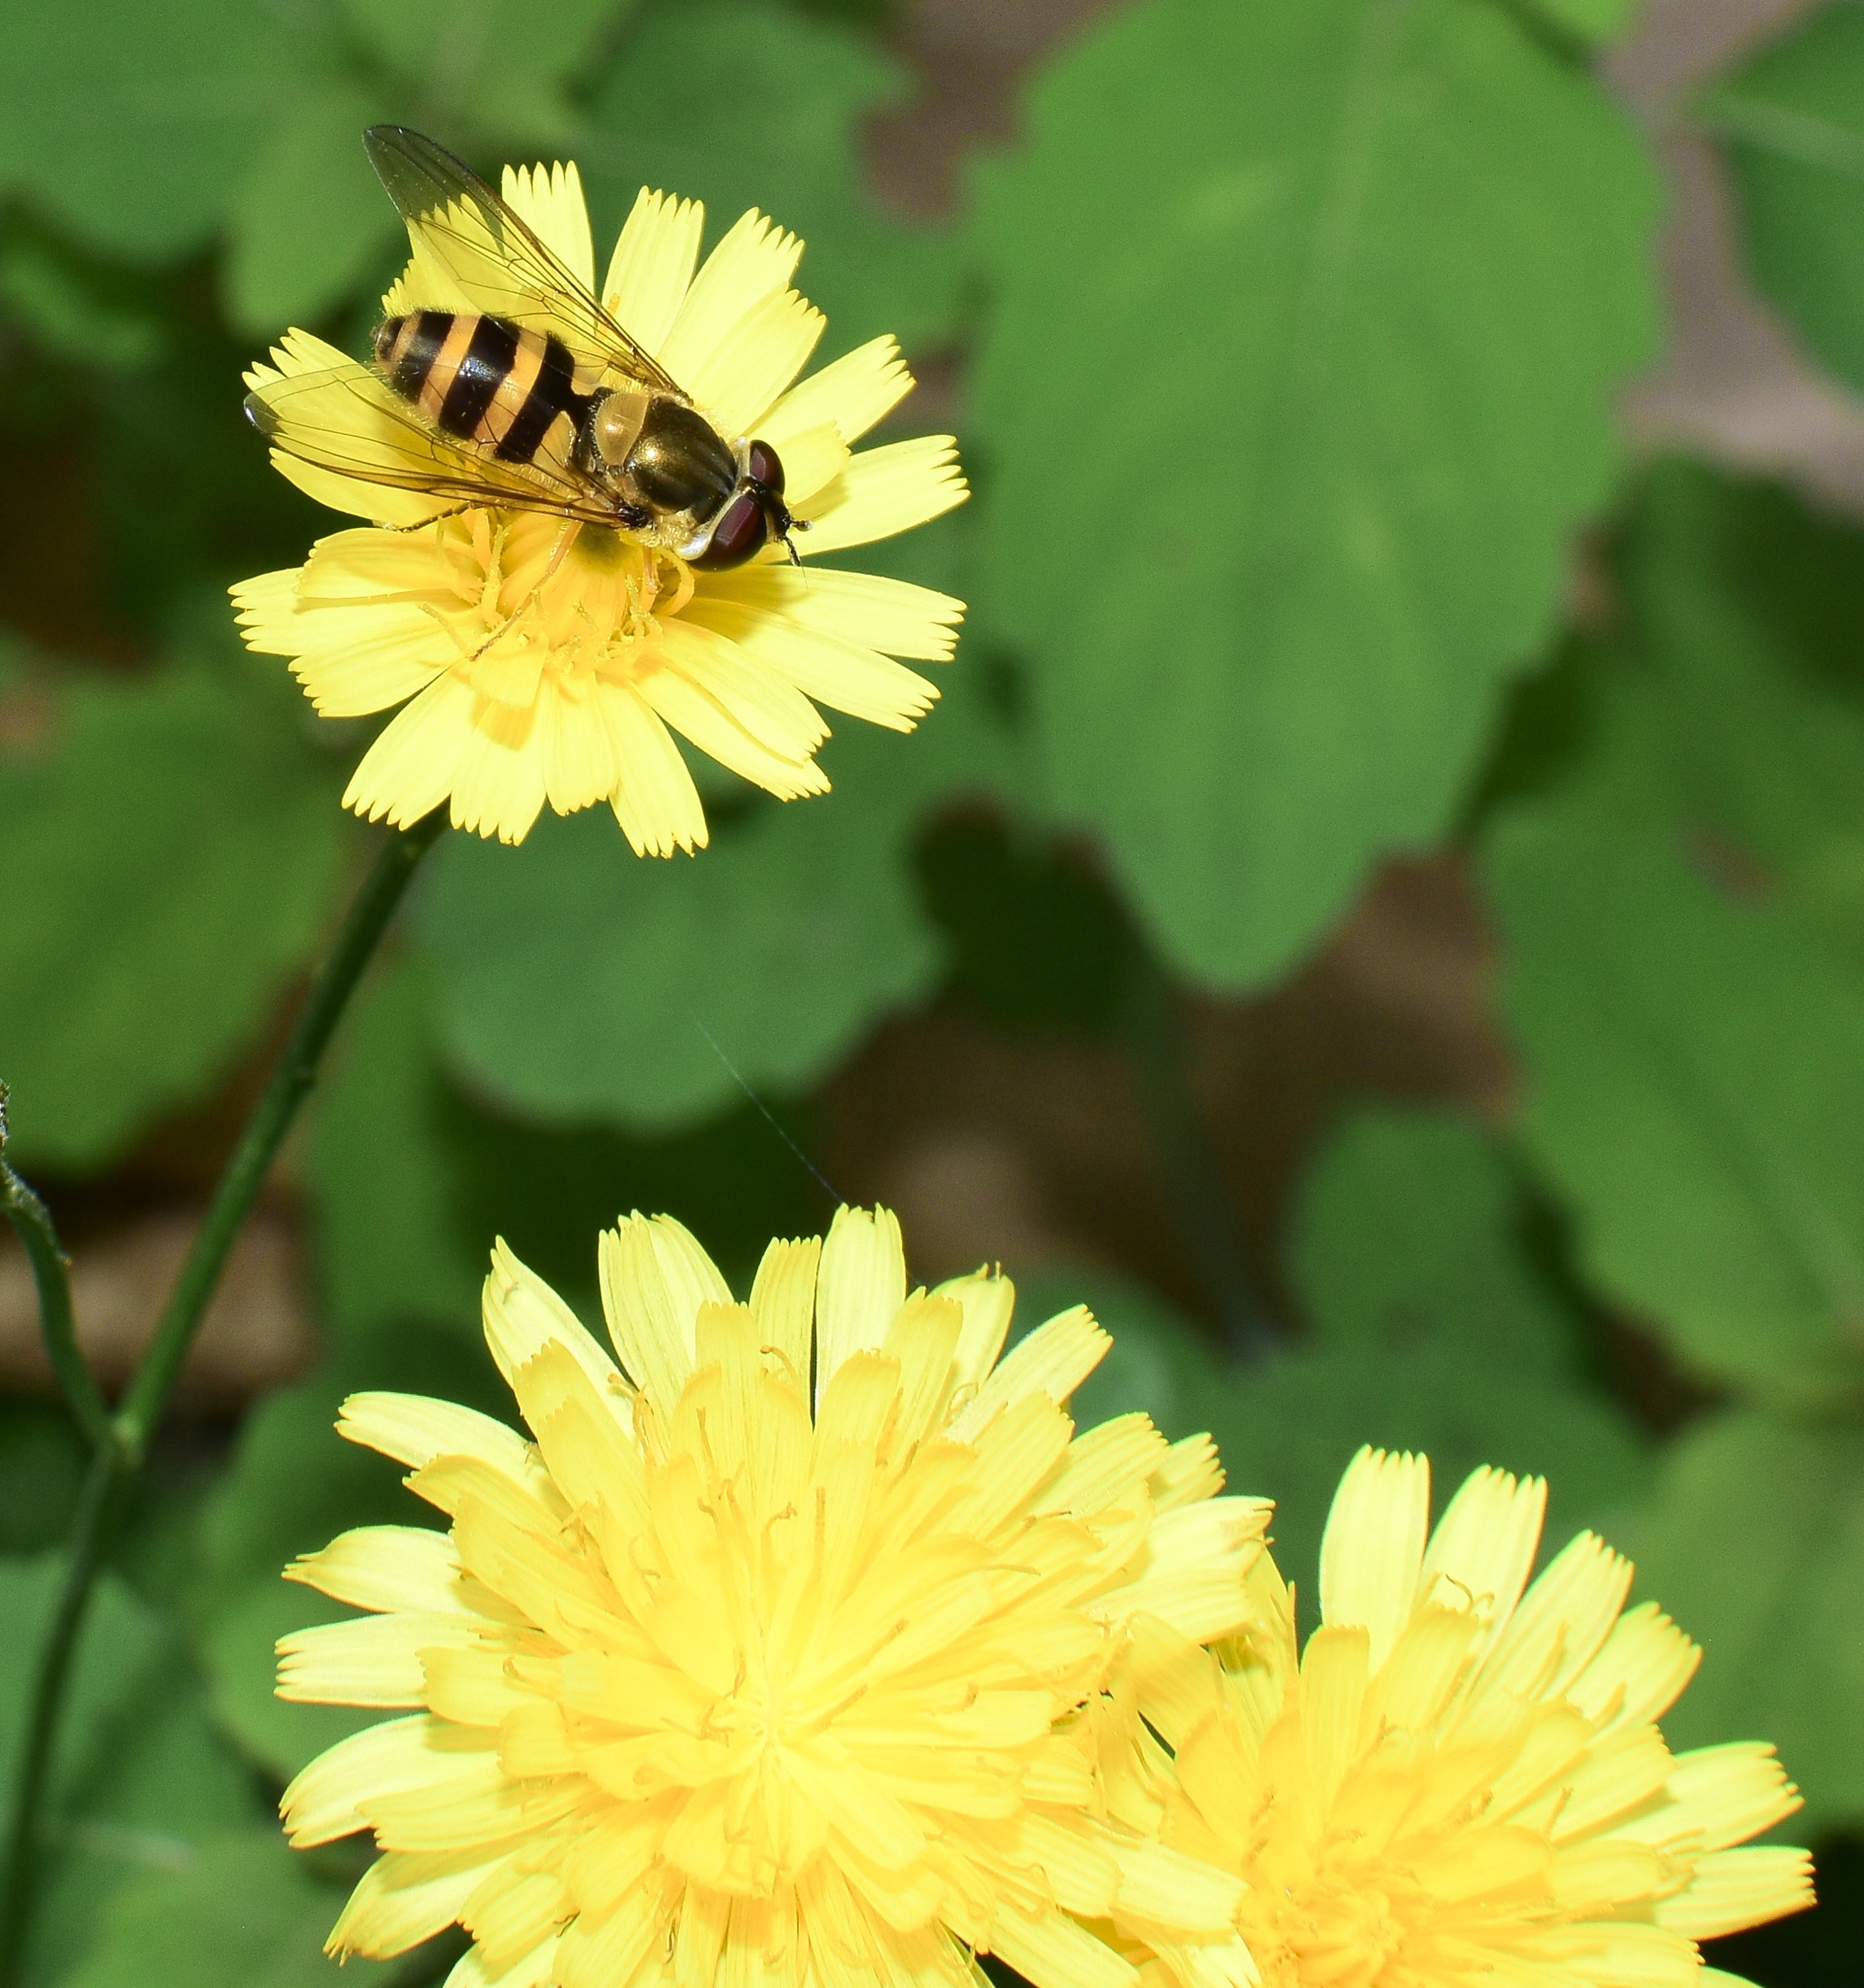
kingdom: Animalia
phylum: Arthropoda
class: Insecta
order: Diptera
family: Syrphidae
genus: Epistrophe
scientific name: Epistrophe grossulariae
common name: Black-horned smoothtail
